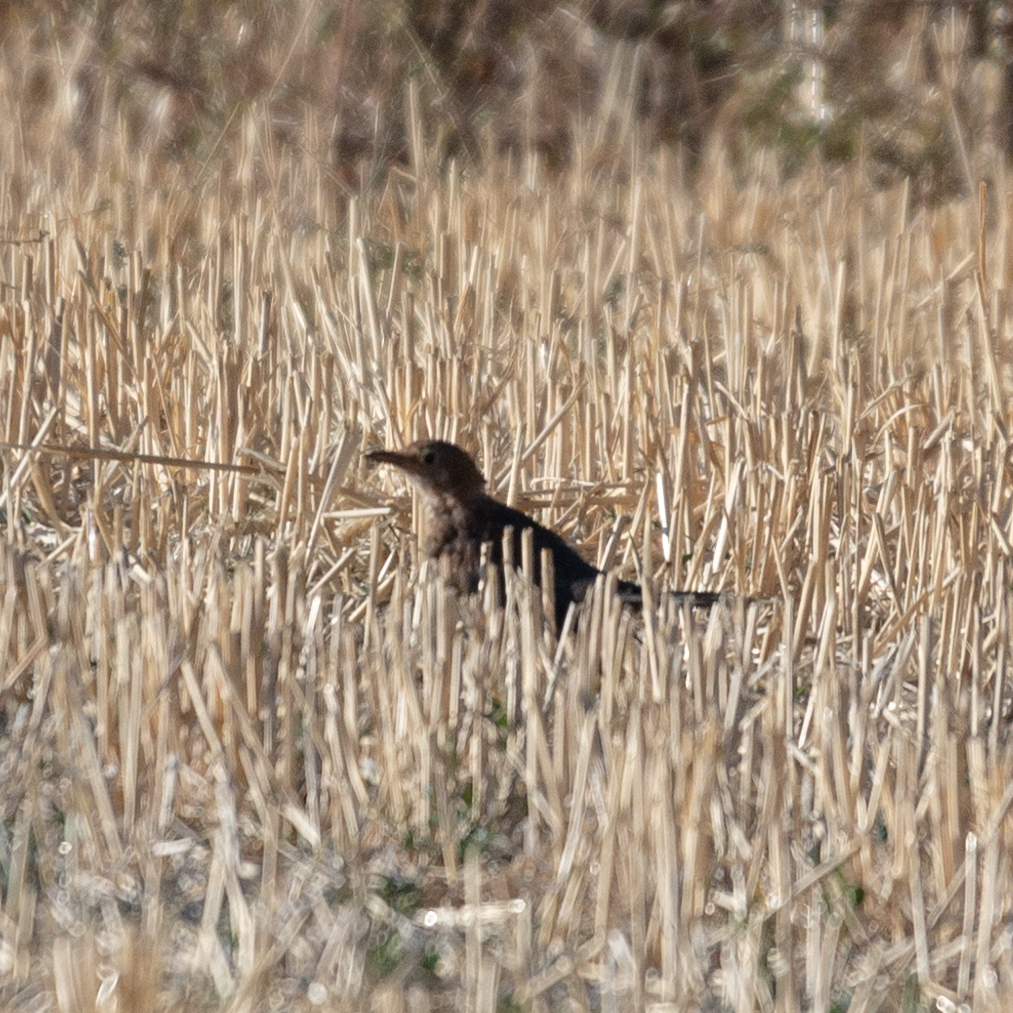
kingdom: Animalia
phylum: Chordata
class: Aves
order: Passeriformes
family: Turdidae
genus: Turdus
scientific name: Turdus merula
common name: Common blackbird
